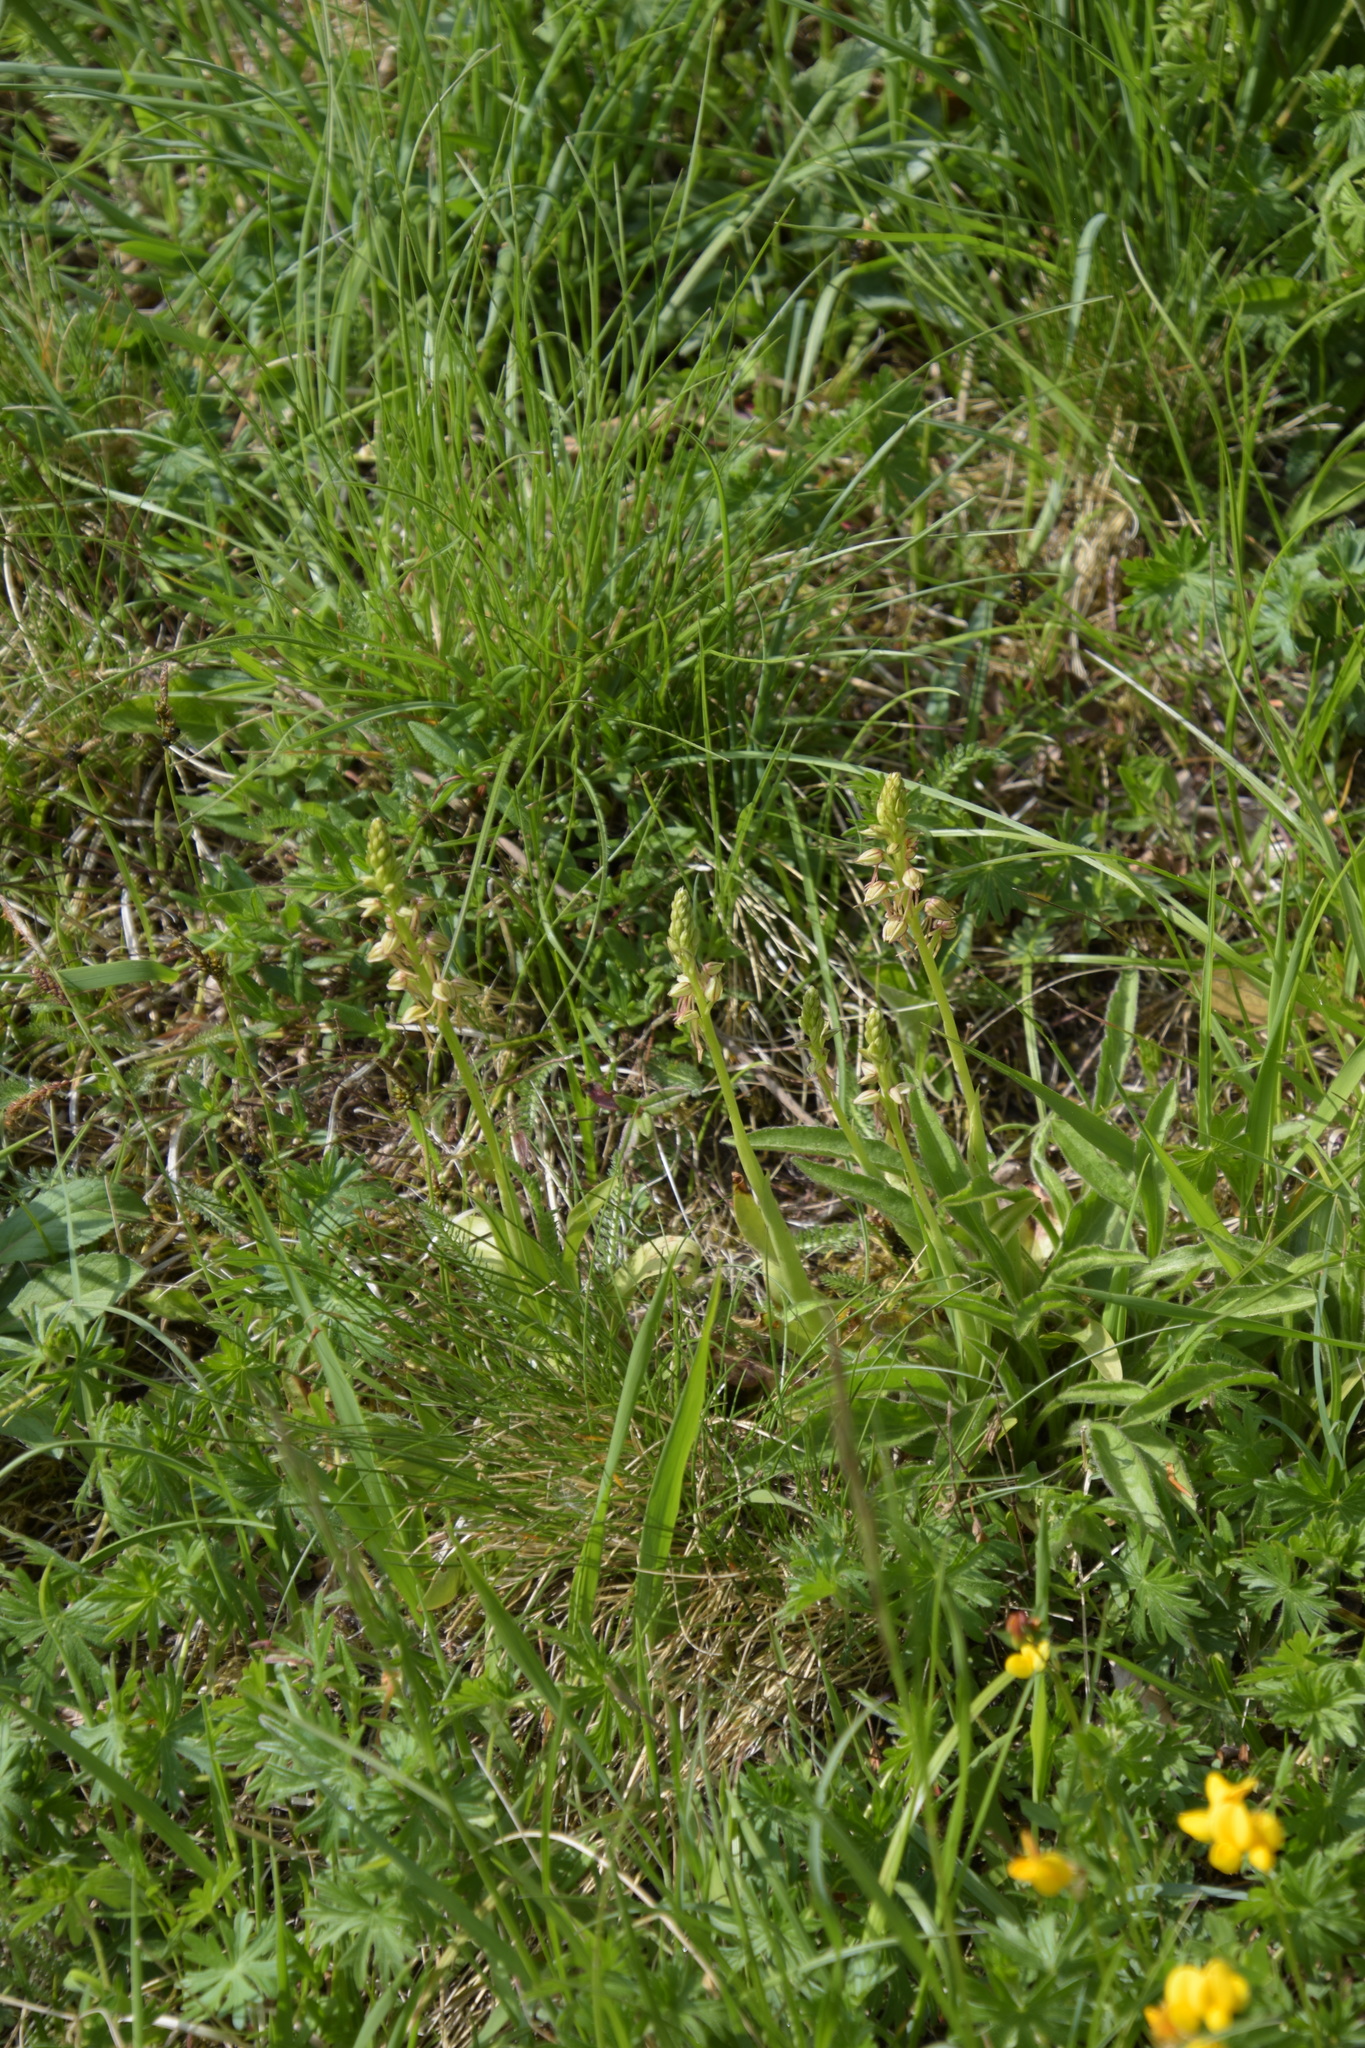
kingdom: Plantae
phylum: Tracheophyta
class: Liliopsida
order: Asparagales
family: Orchidaceae
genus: Orchis
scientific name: Orchis anthropophora
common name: Man orchid
